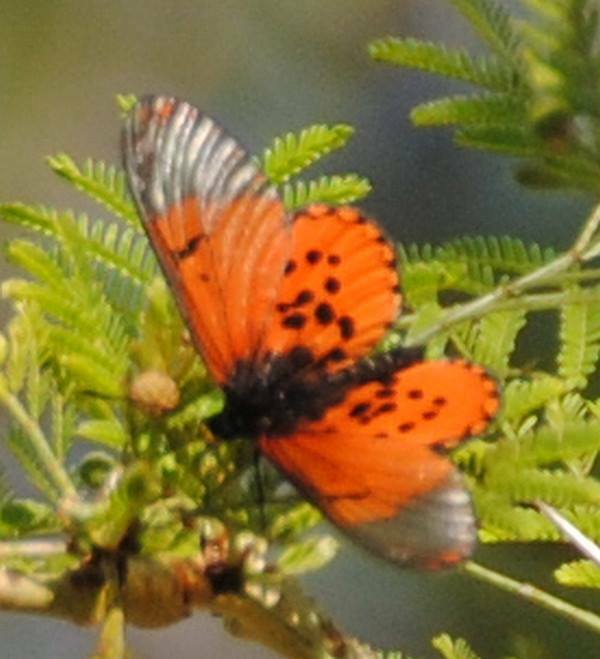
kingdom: Animalia
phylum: Arthropoda
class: Insecta
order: Lepidoptera
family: Nymphalidae
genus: Acraea
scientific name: Acraea horta
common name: Garden acraea
